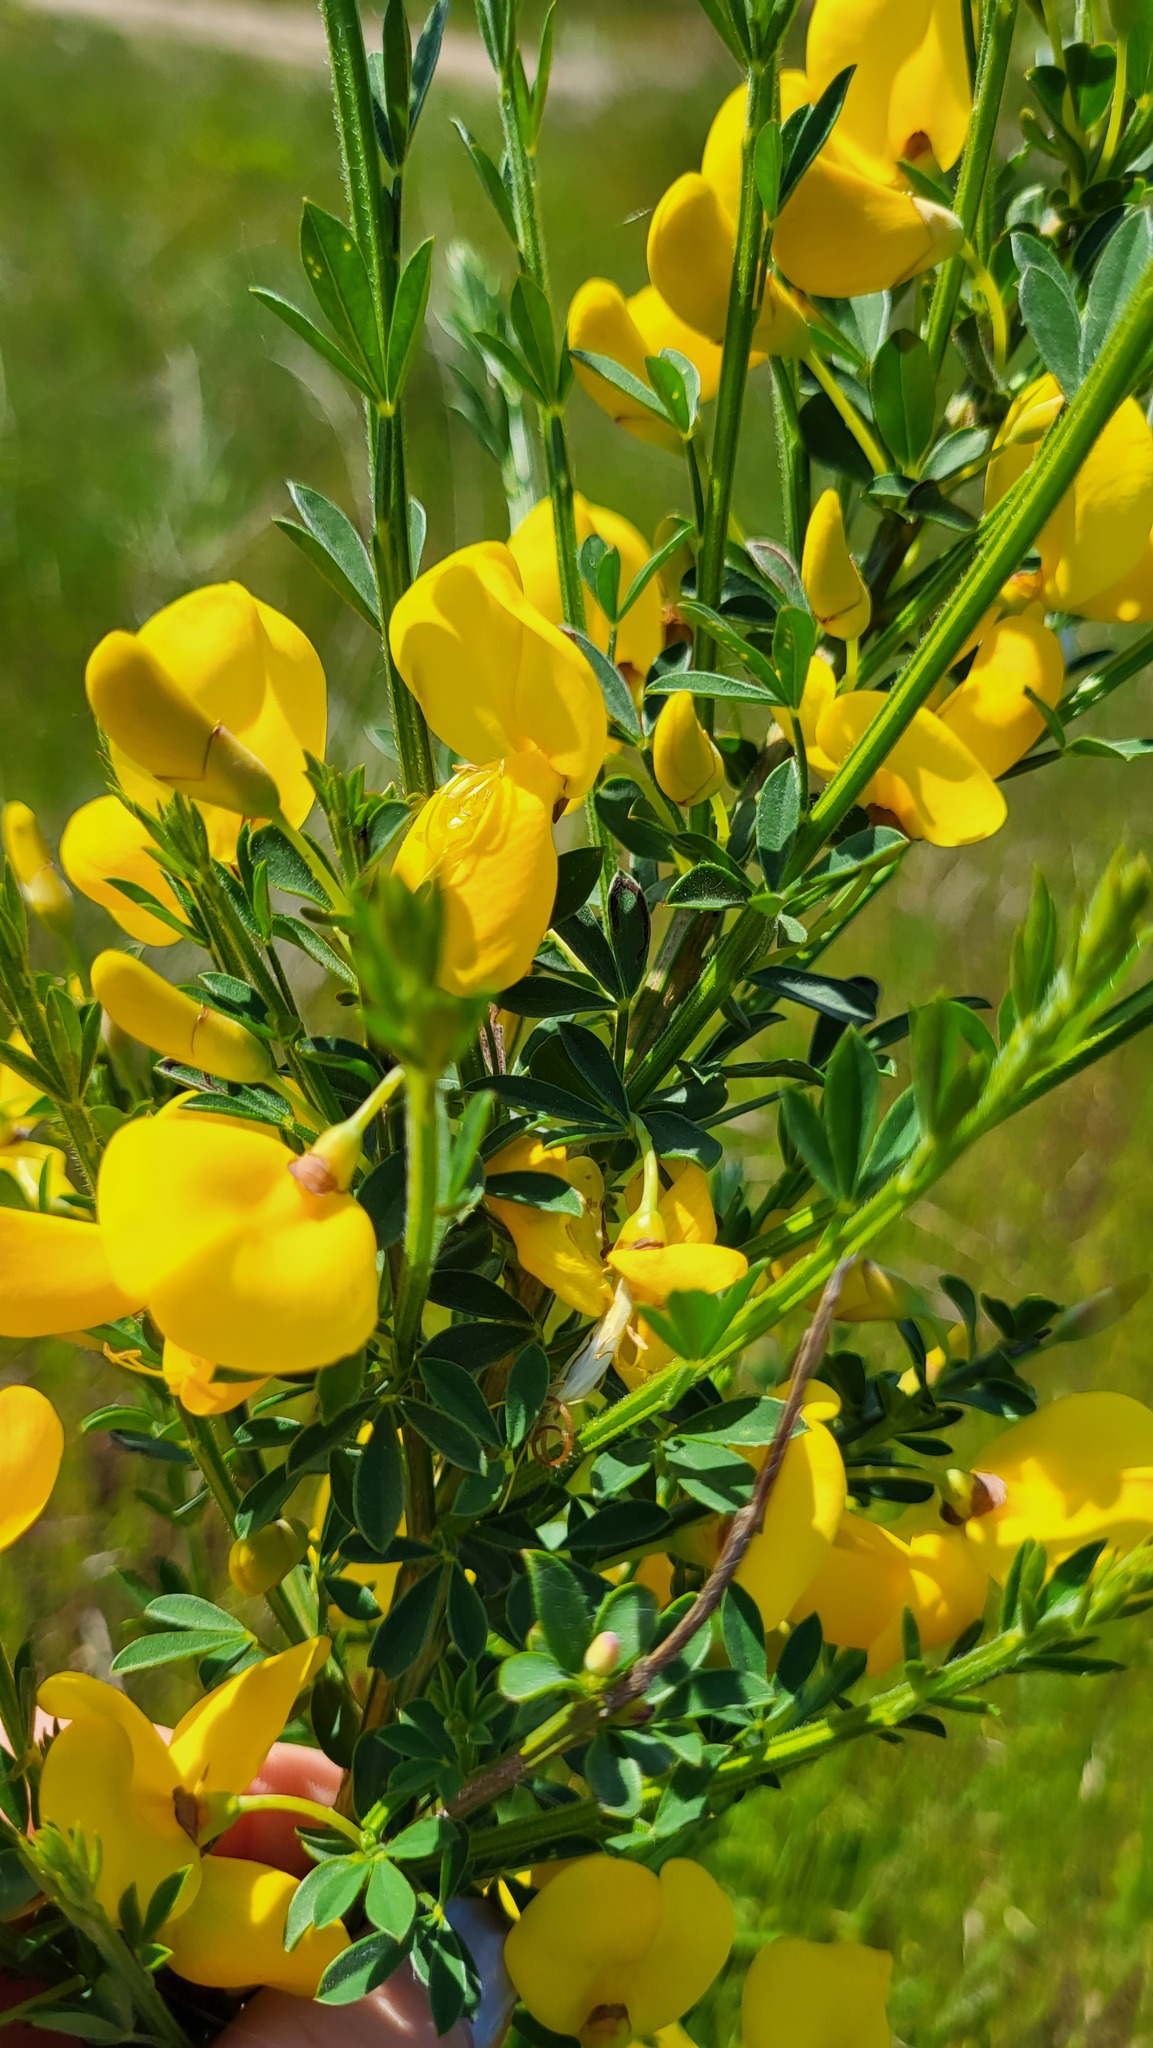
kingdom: Plantae
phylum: Tracheophyta
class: Magnoliopsida
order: Fabales
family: Fabaceae
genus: Cytisus
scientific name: Cytisus scoparius
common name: Scotch broom
